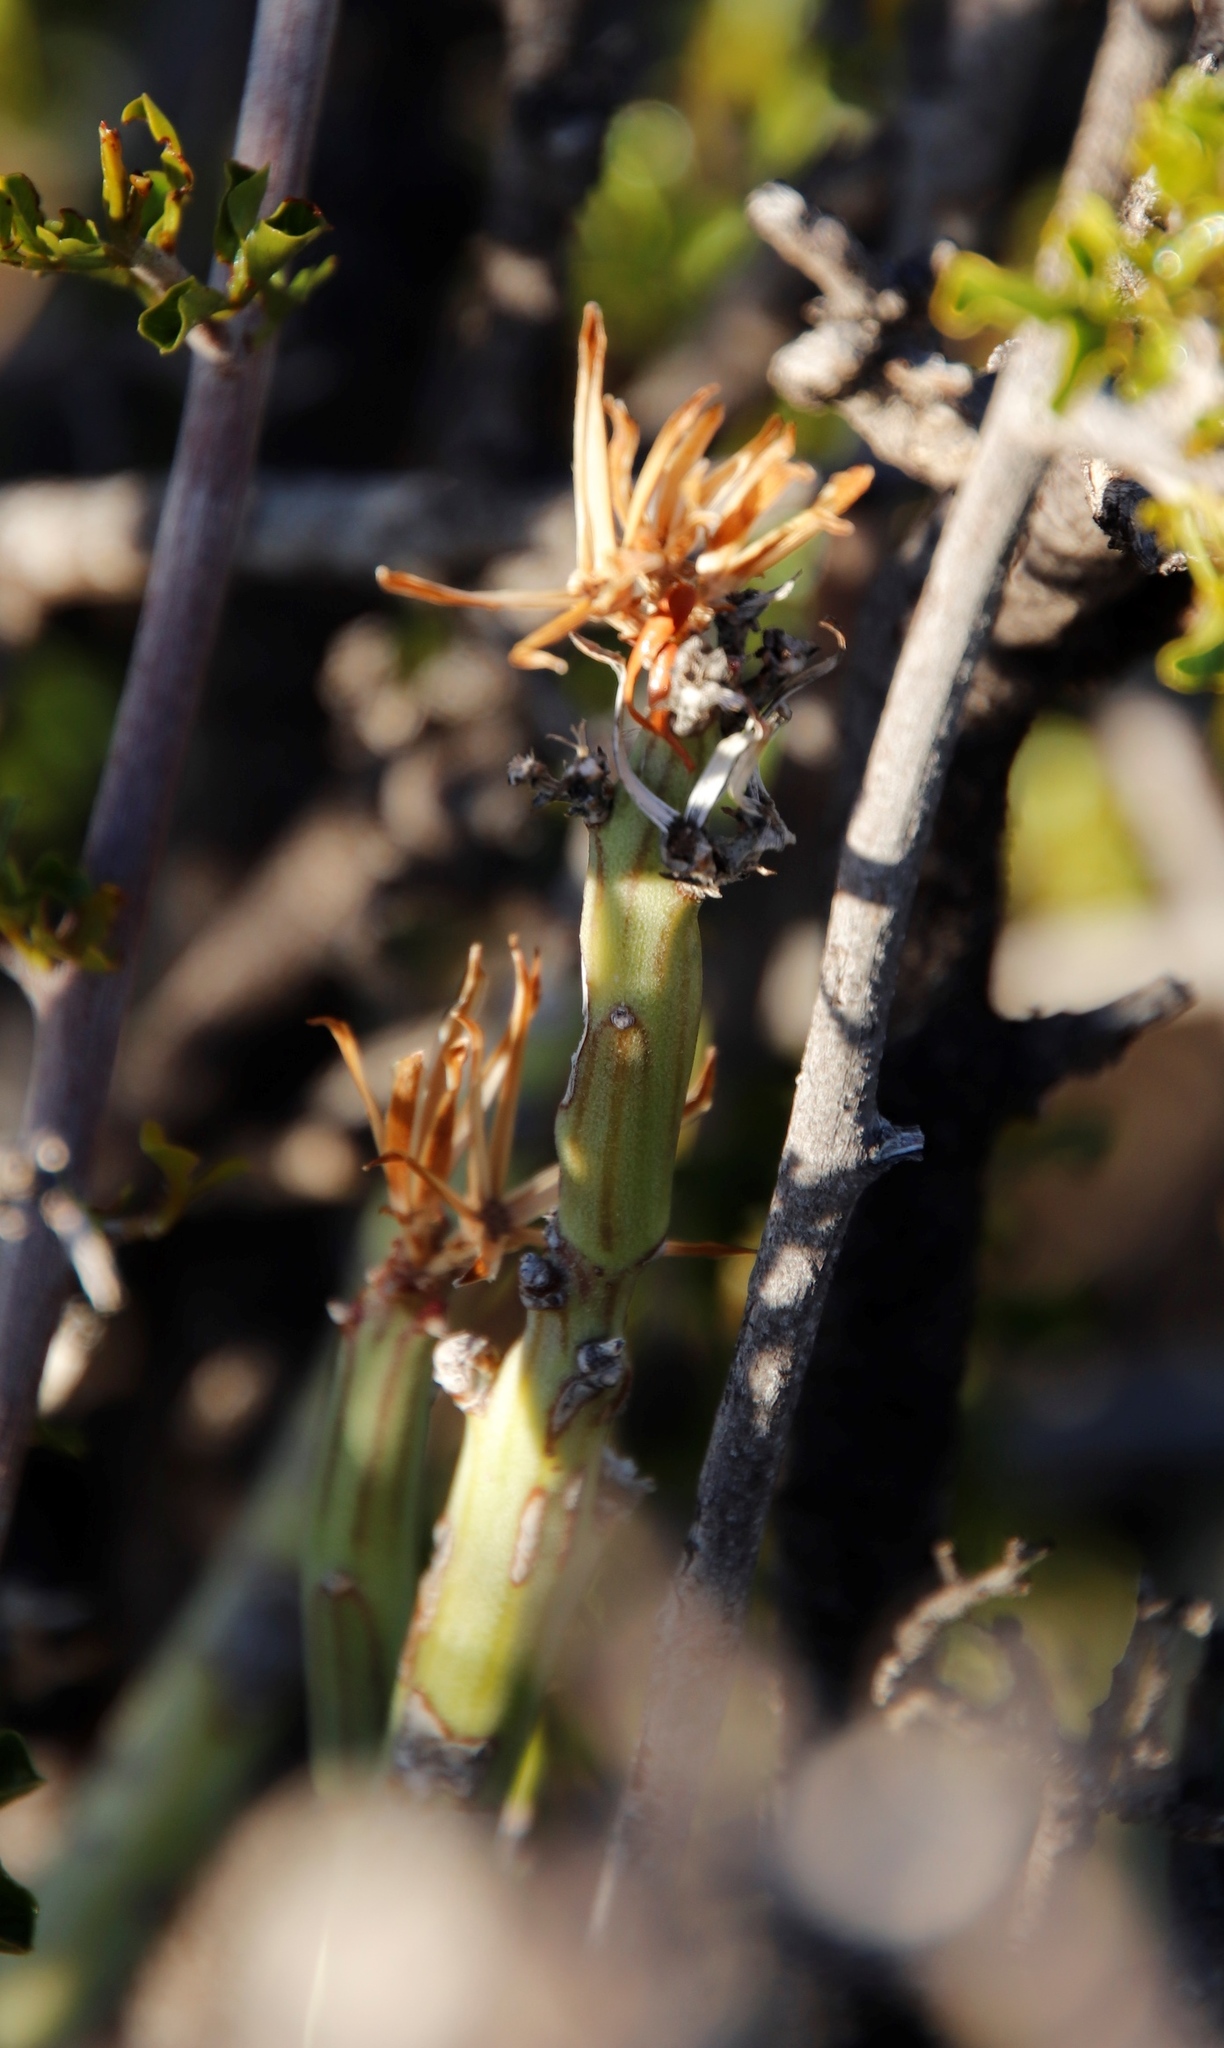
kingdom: Plantae
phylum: Tracheophyta
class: Magnoliopsida
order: Asterales
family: Asteraceae
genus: Curio
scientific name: Curio avasimontanus
